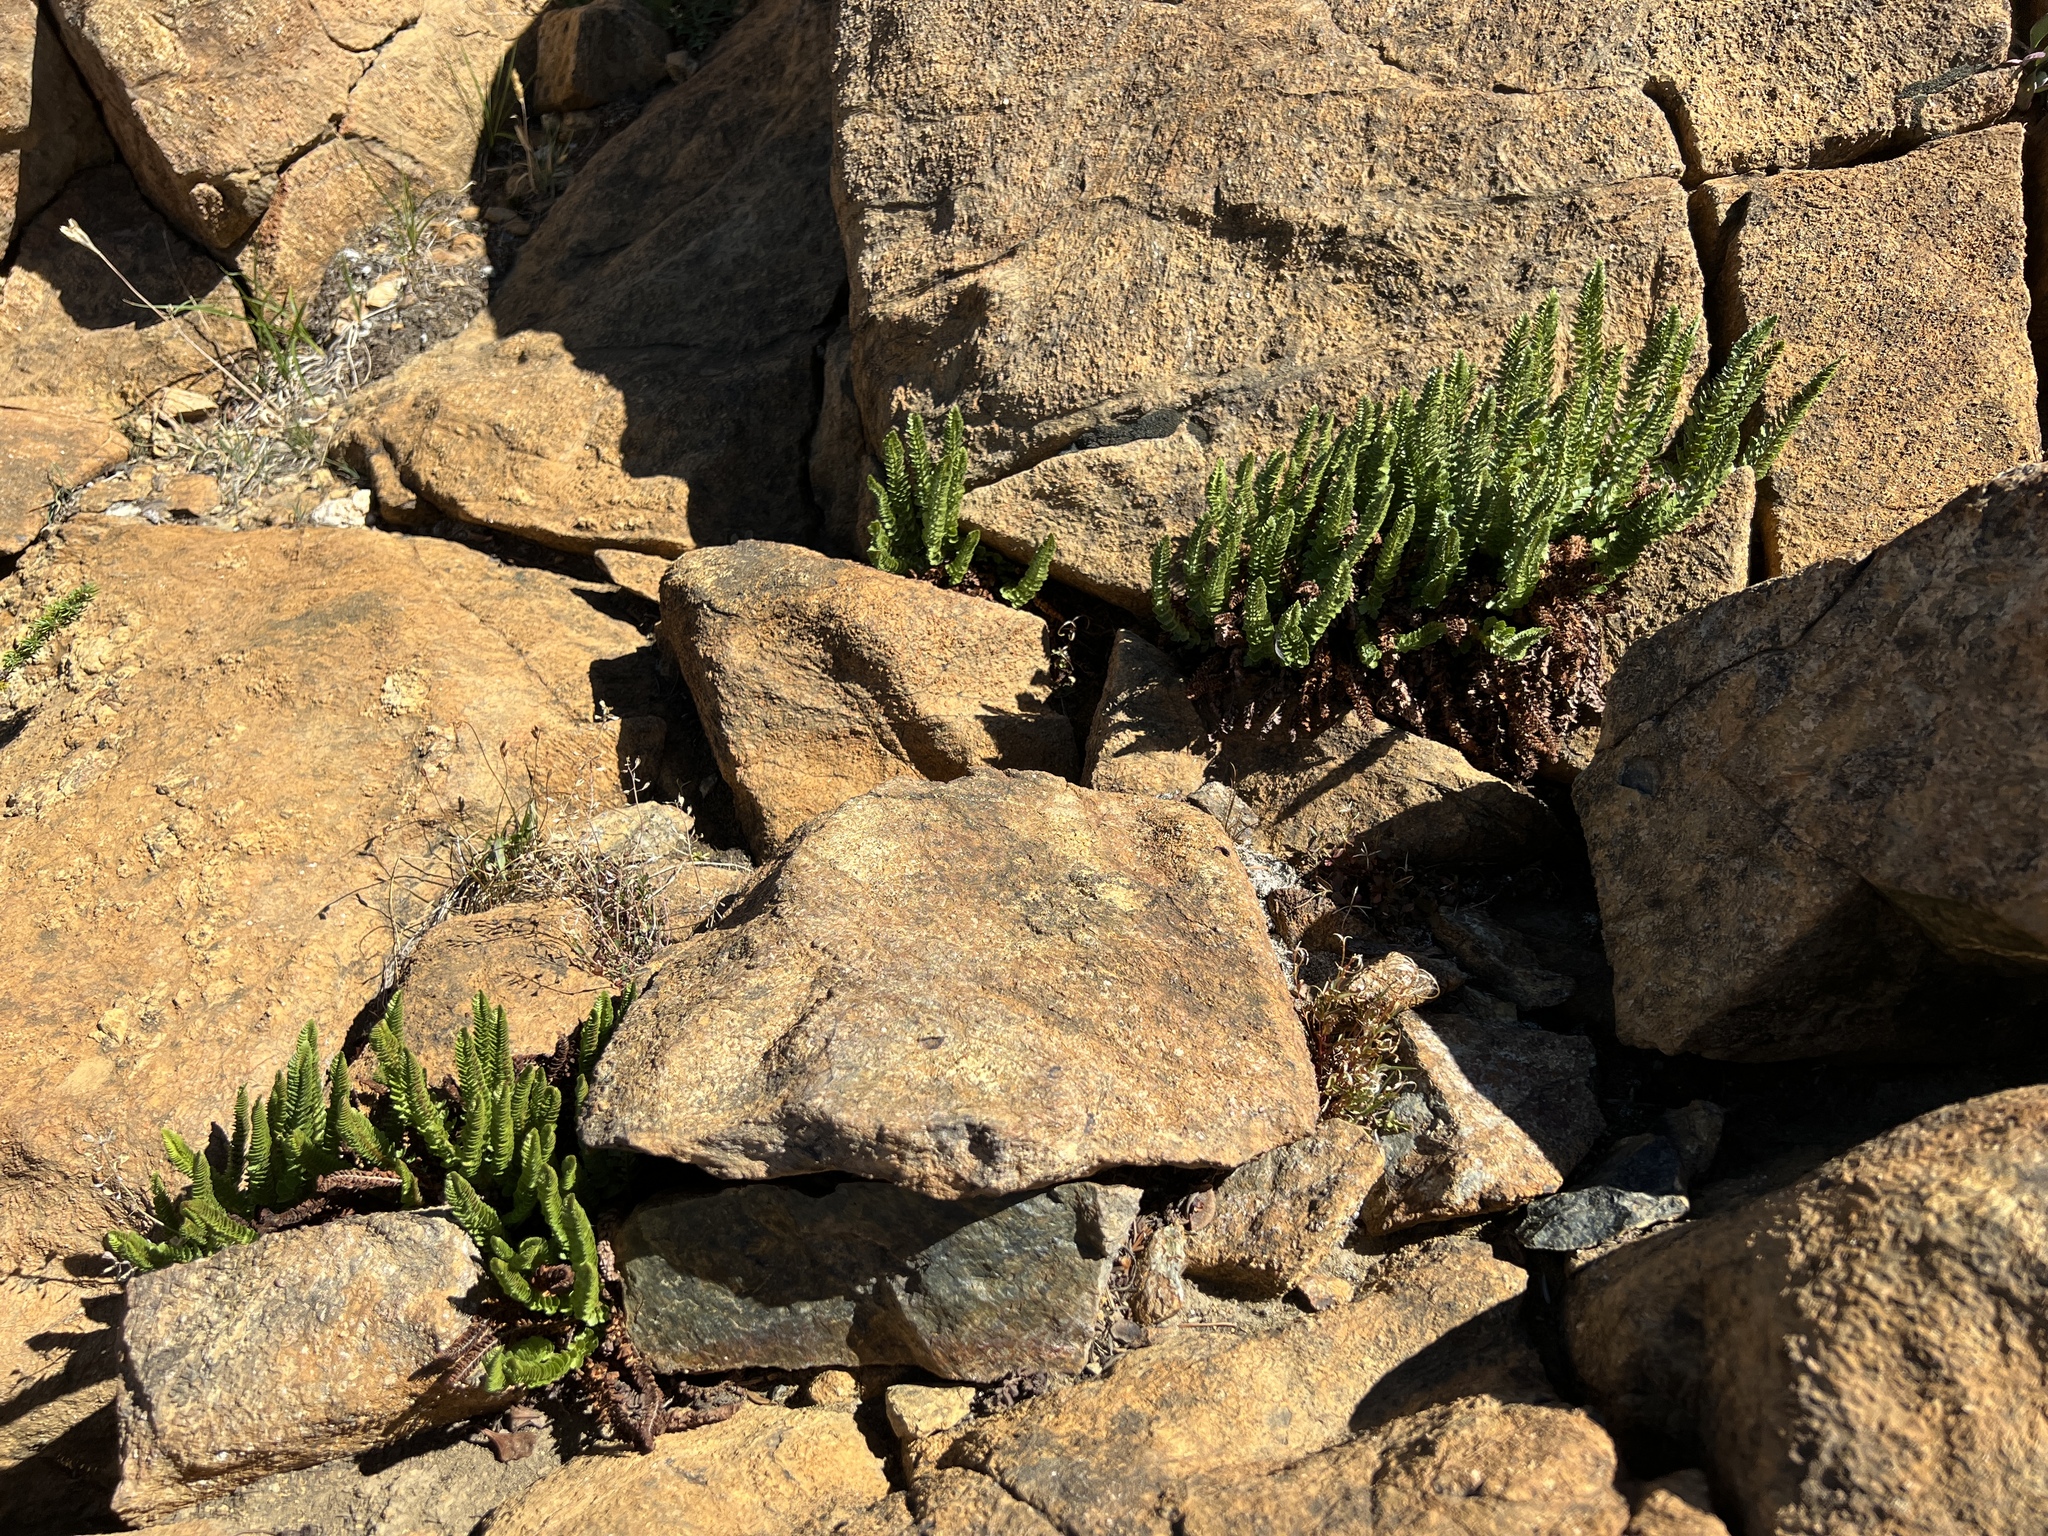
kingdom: Plantae
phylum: Tracheophyta
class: Polypodiopsida
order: Polypodiales
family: Dryopteridaceae
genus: Polystichum
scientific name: Polystichum lemmonii
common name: Lemmon's holly fern
